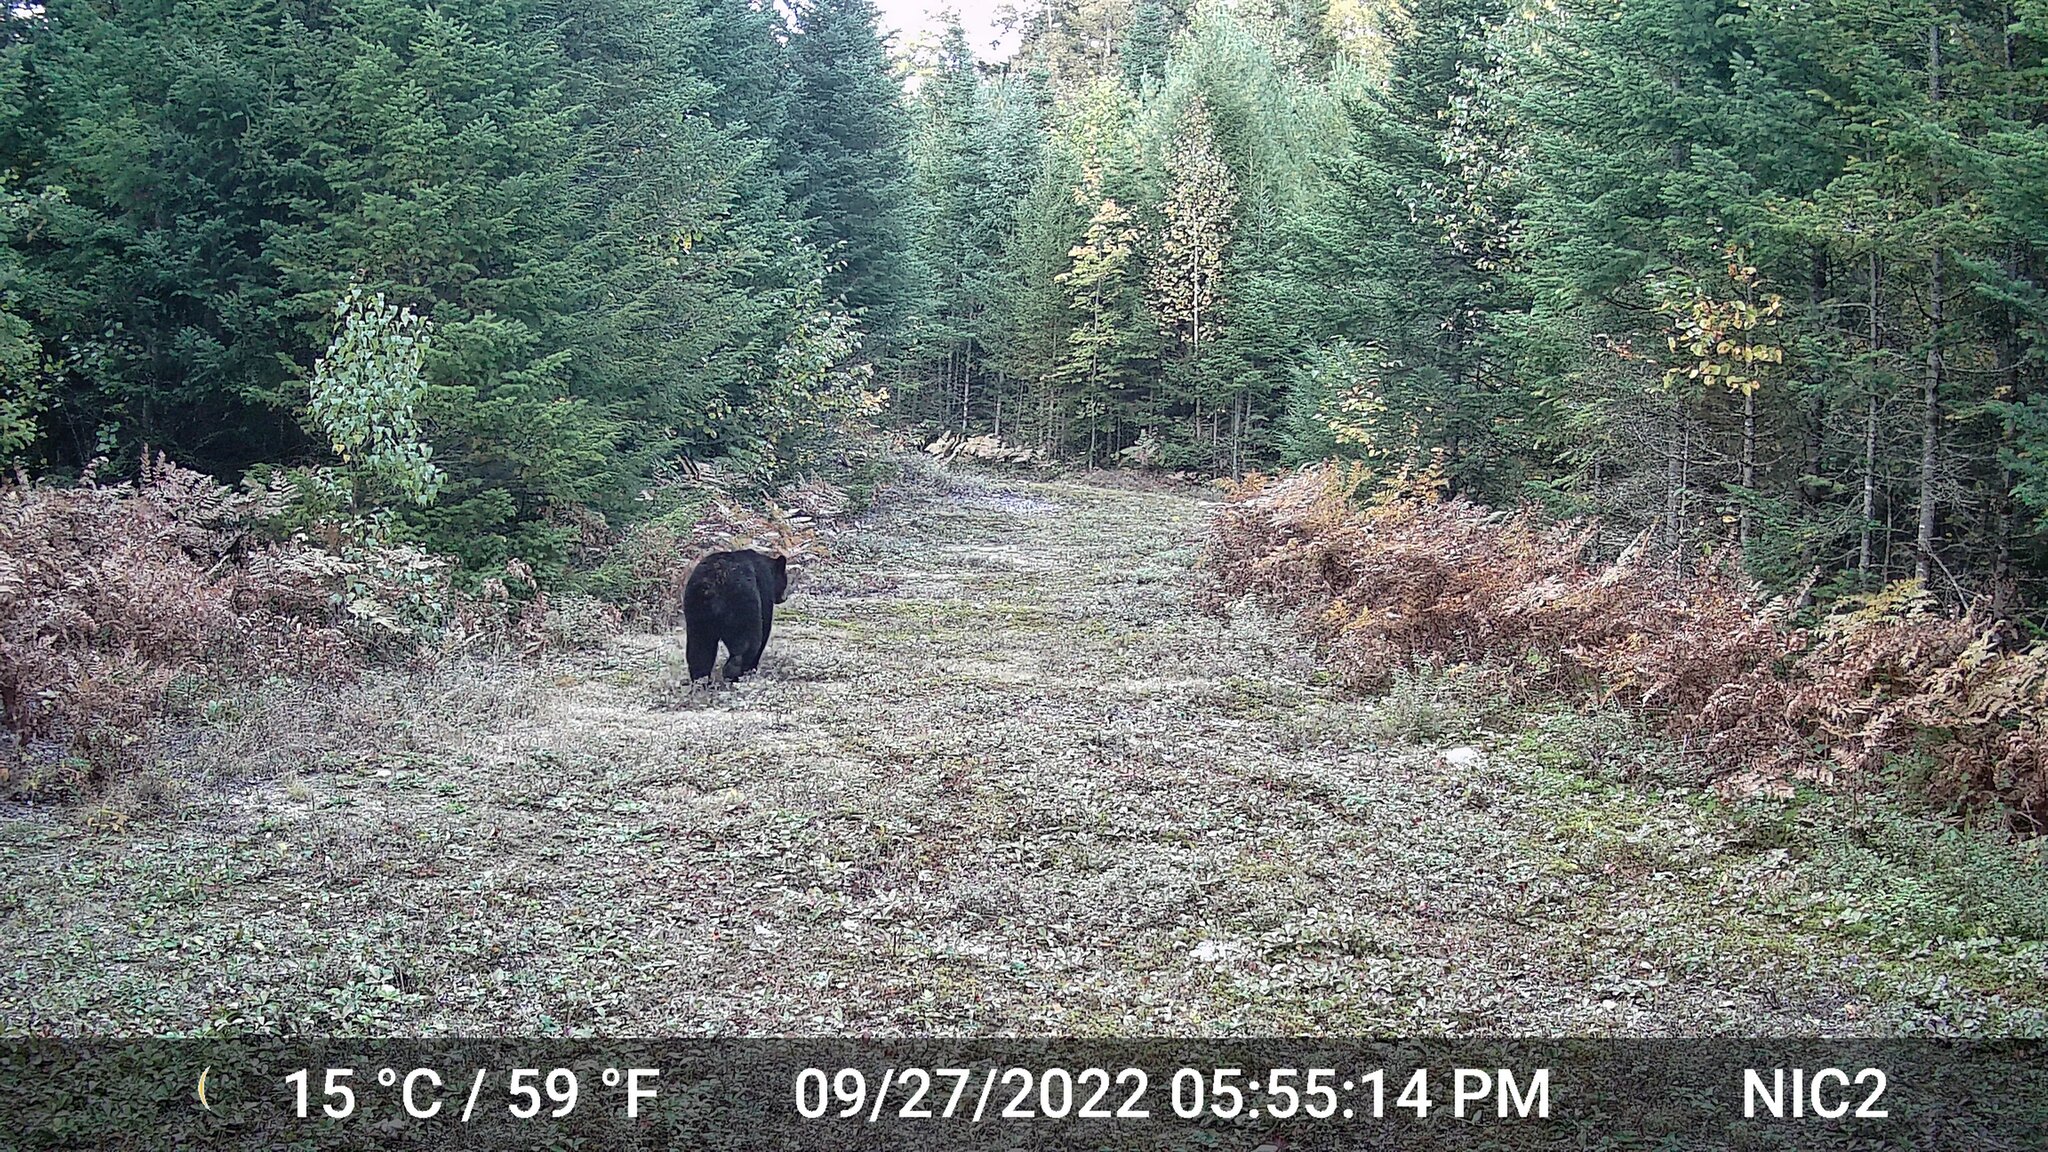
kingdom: Animalia
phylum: Chordata
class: Mammalia
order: Carnivora
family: Ursidae
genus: Ursus
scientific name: Ursus americanus
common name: American black bear
